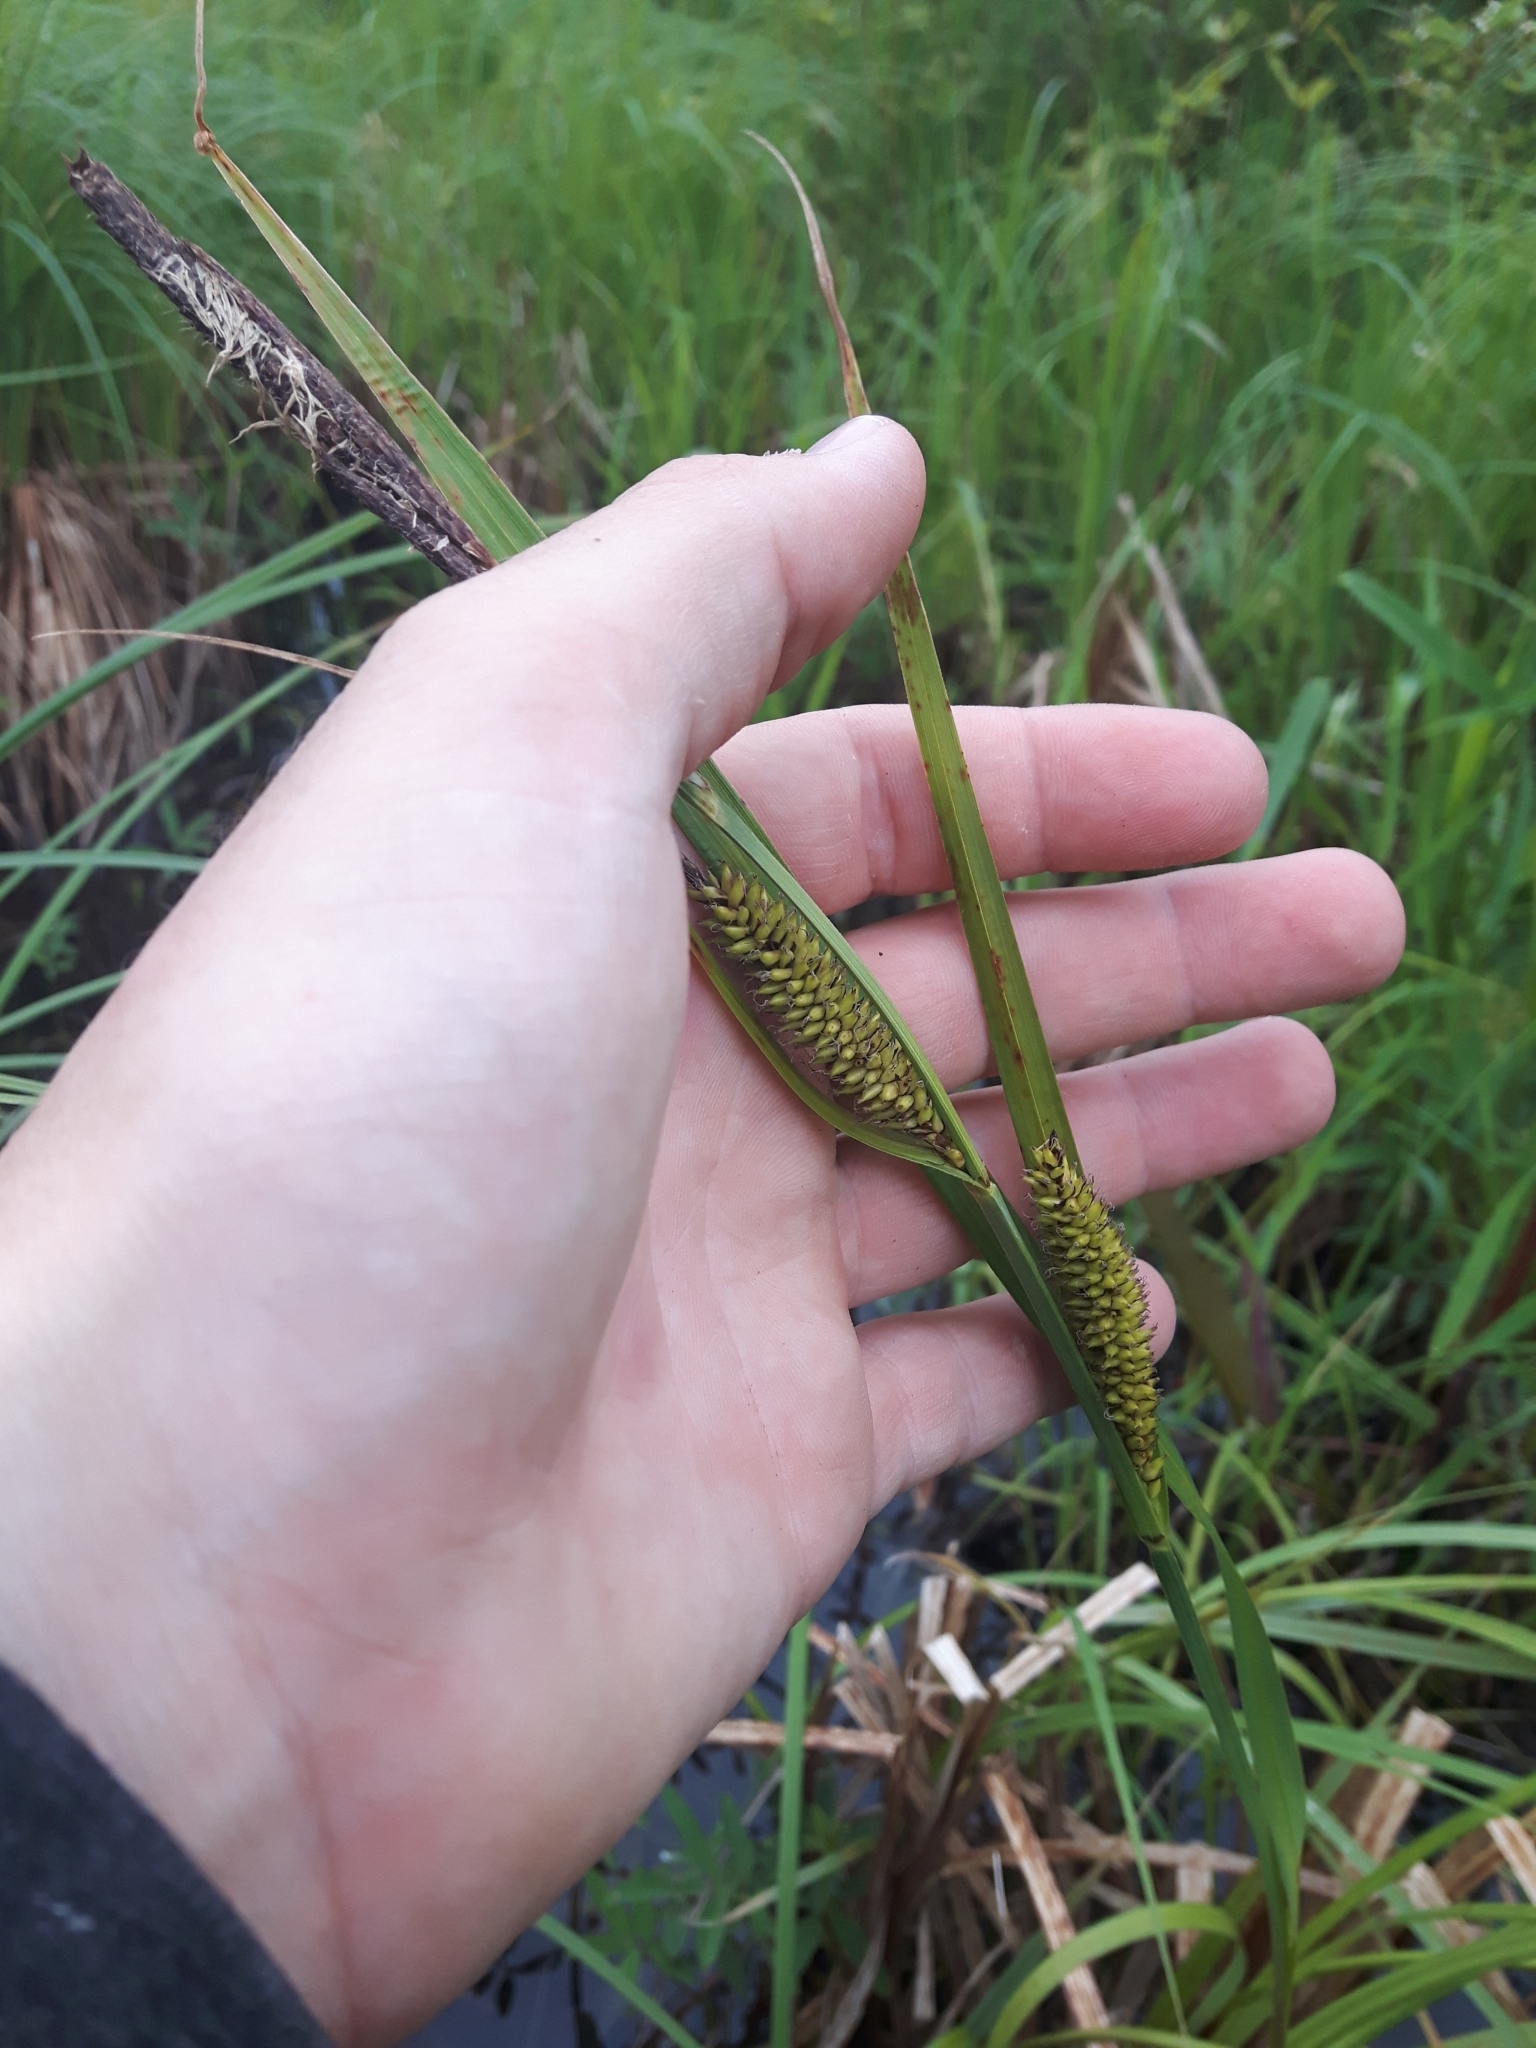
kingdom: Plantae
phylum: Tracheophyta
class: Liliopsida
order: Poales
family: Cyperaceae
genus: Carex
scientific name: Carex lacustris
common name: Common lake sedge
